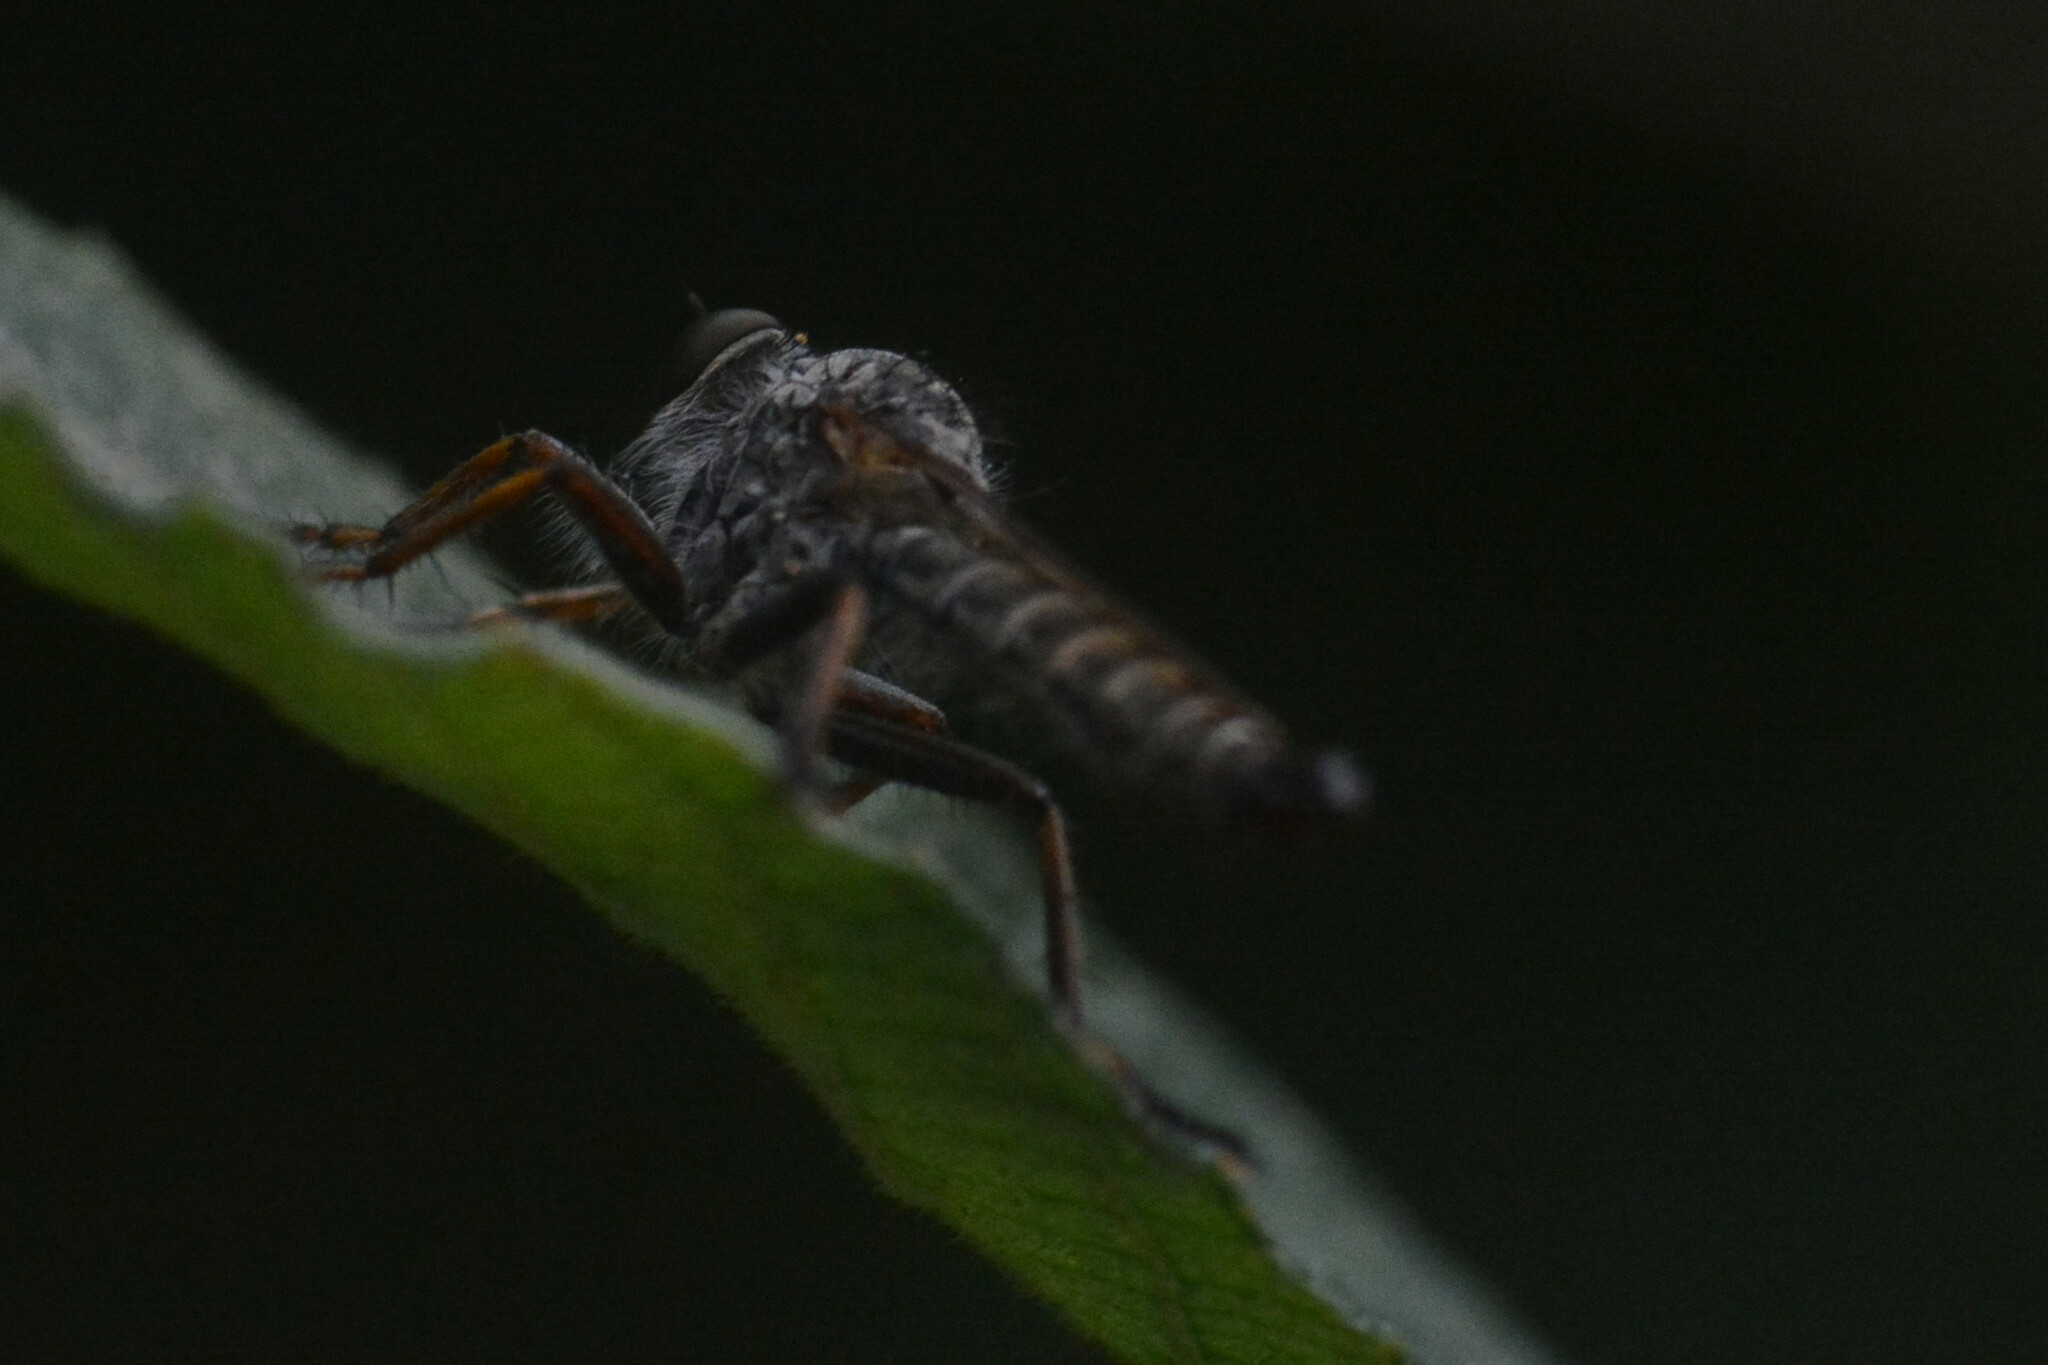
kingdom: Animalia
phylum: Arthropoda
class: Insecta
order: Diptera
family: Asilidae
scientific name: Asilidae
